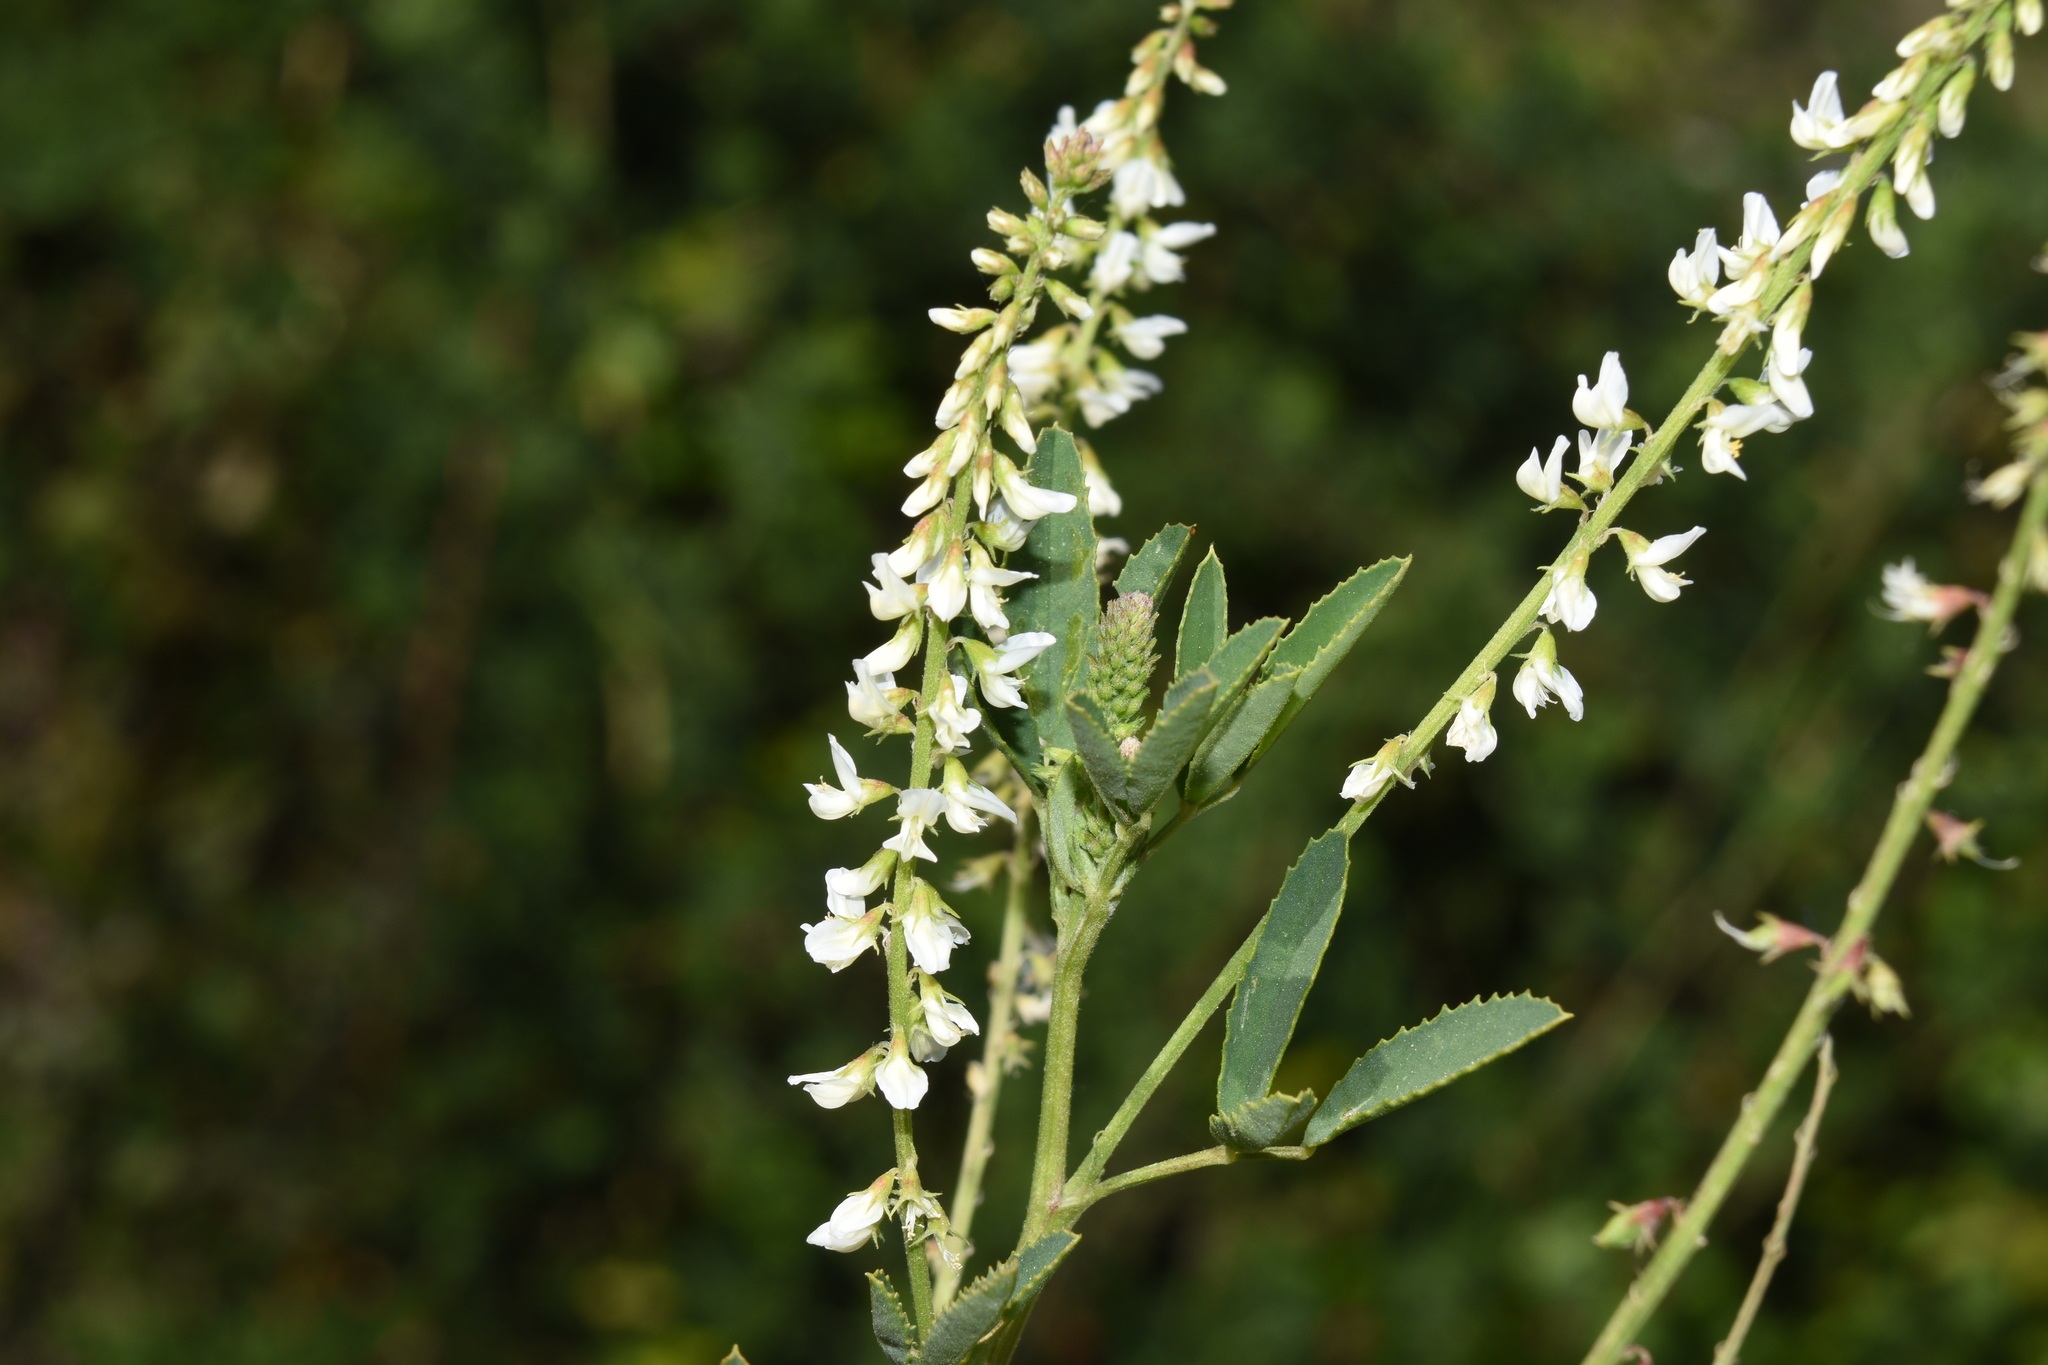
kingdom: Plantae
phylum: Tracheophyta
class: Magnoliopsida
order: Fabales
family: Fabaceae
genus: Melilotus
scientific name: Melilotus albus
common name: White melilot
